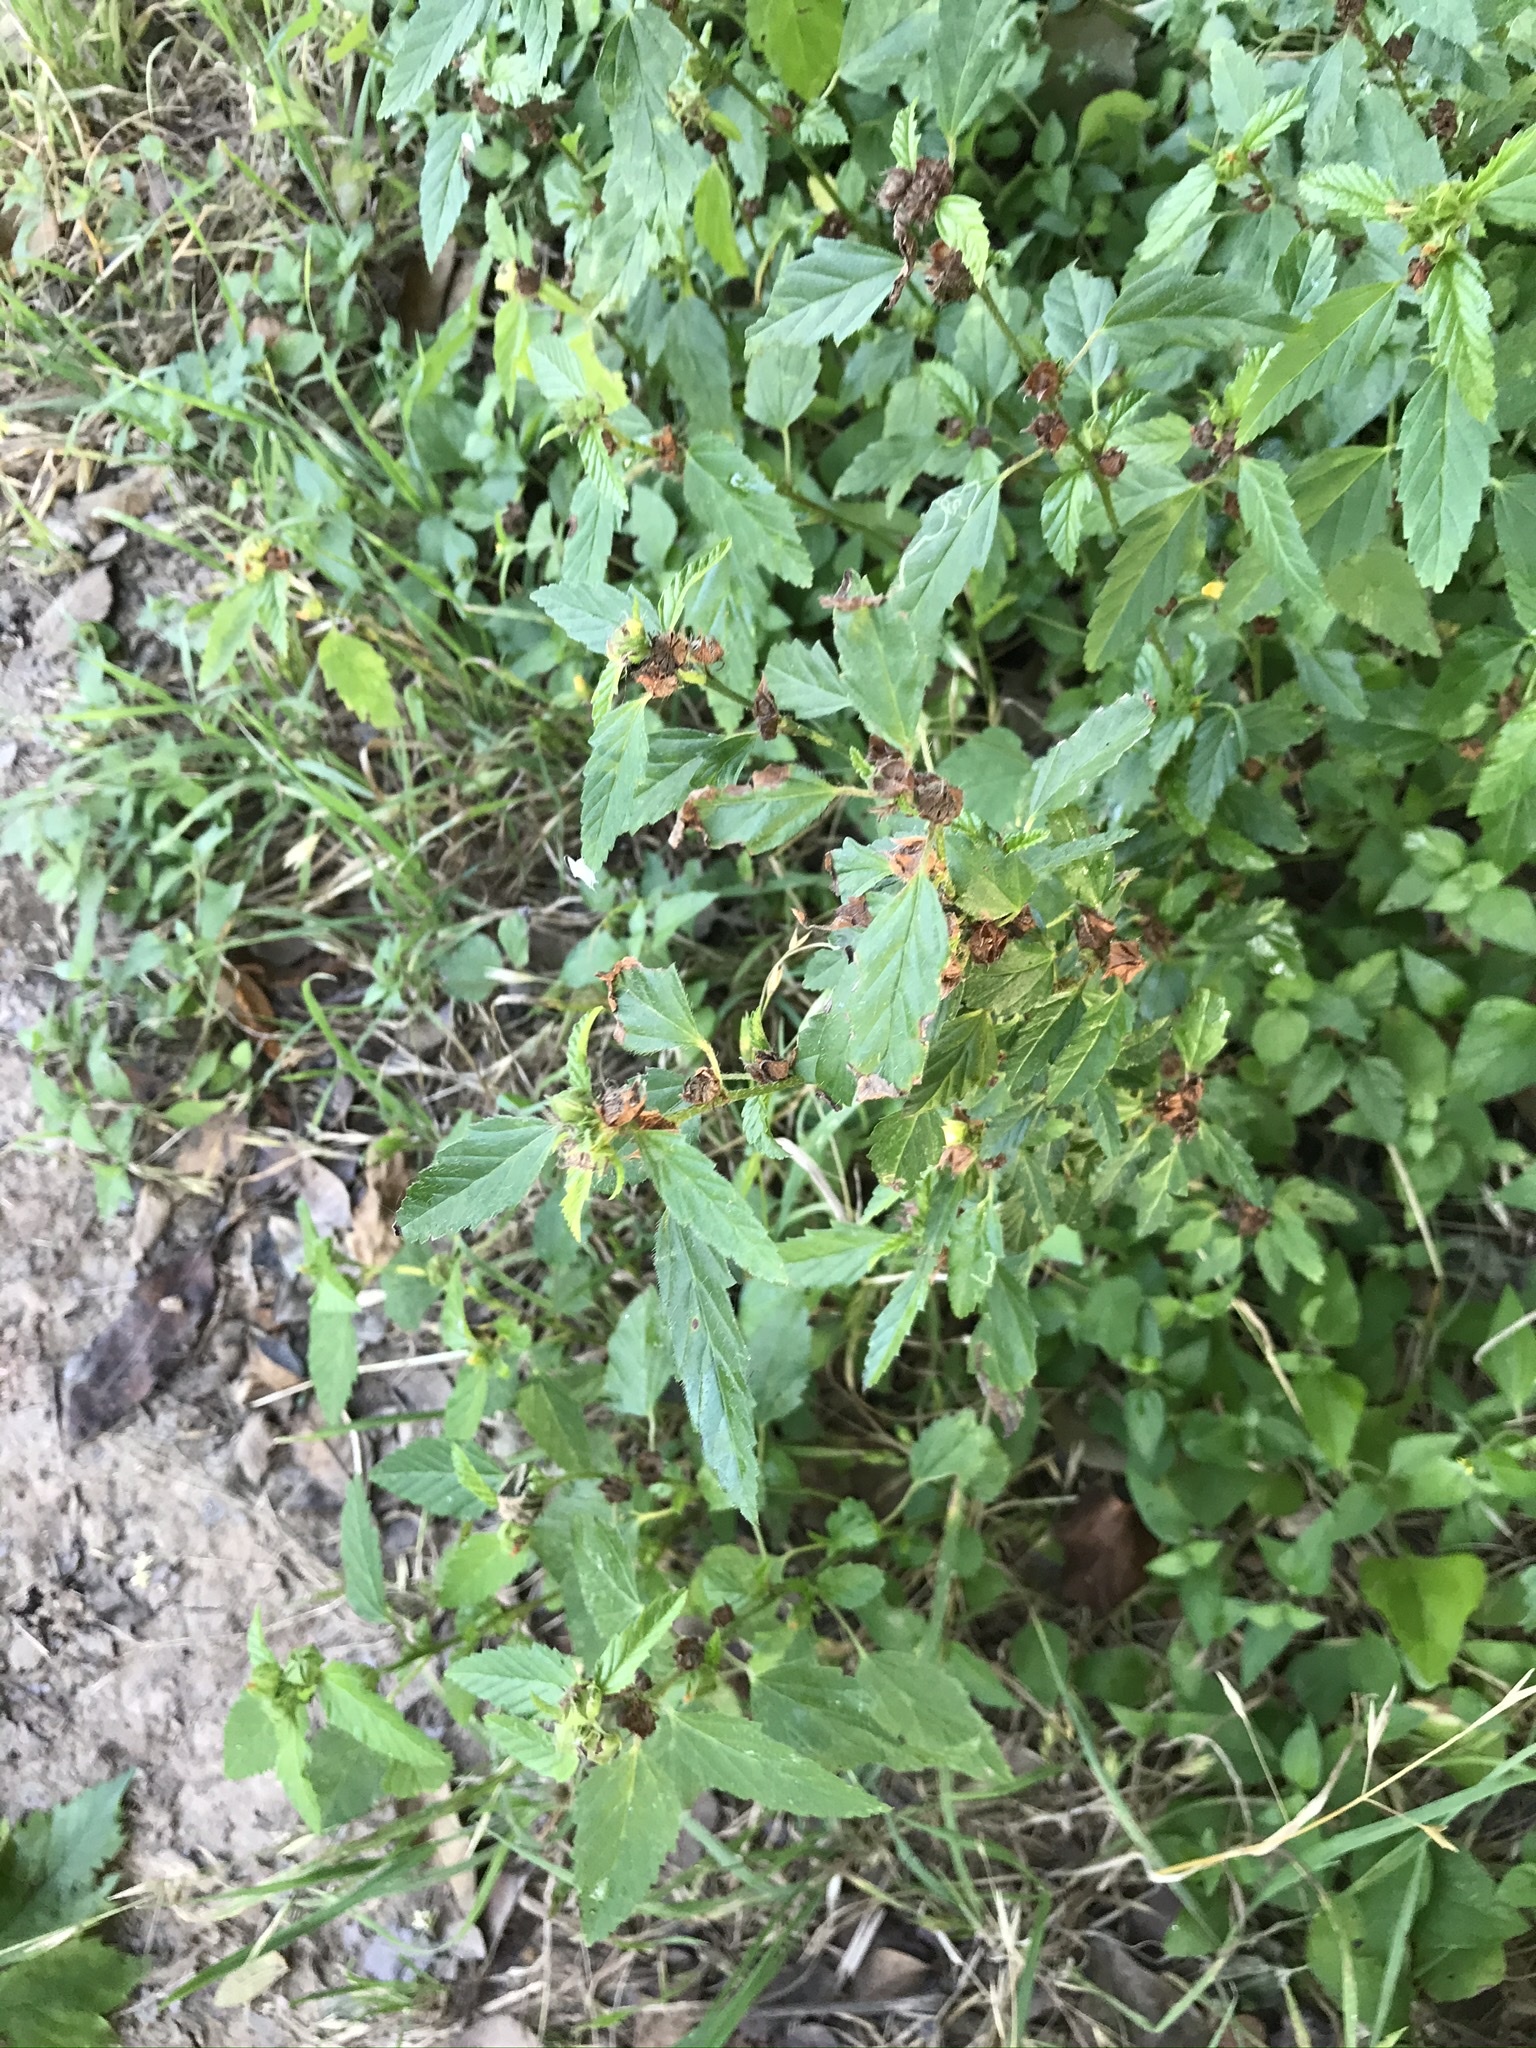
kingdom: Plantae
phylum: Tracheophyta
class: Magnoliopsida
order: Malvales
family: Malvaceae
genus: Malvastrum
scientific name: Malvastrum coromandelianum
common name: Threelobe false mallow
